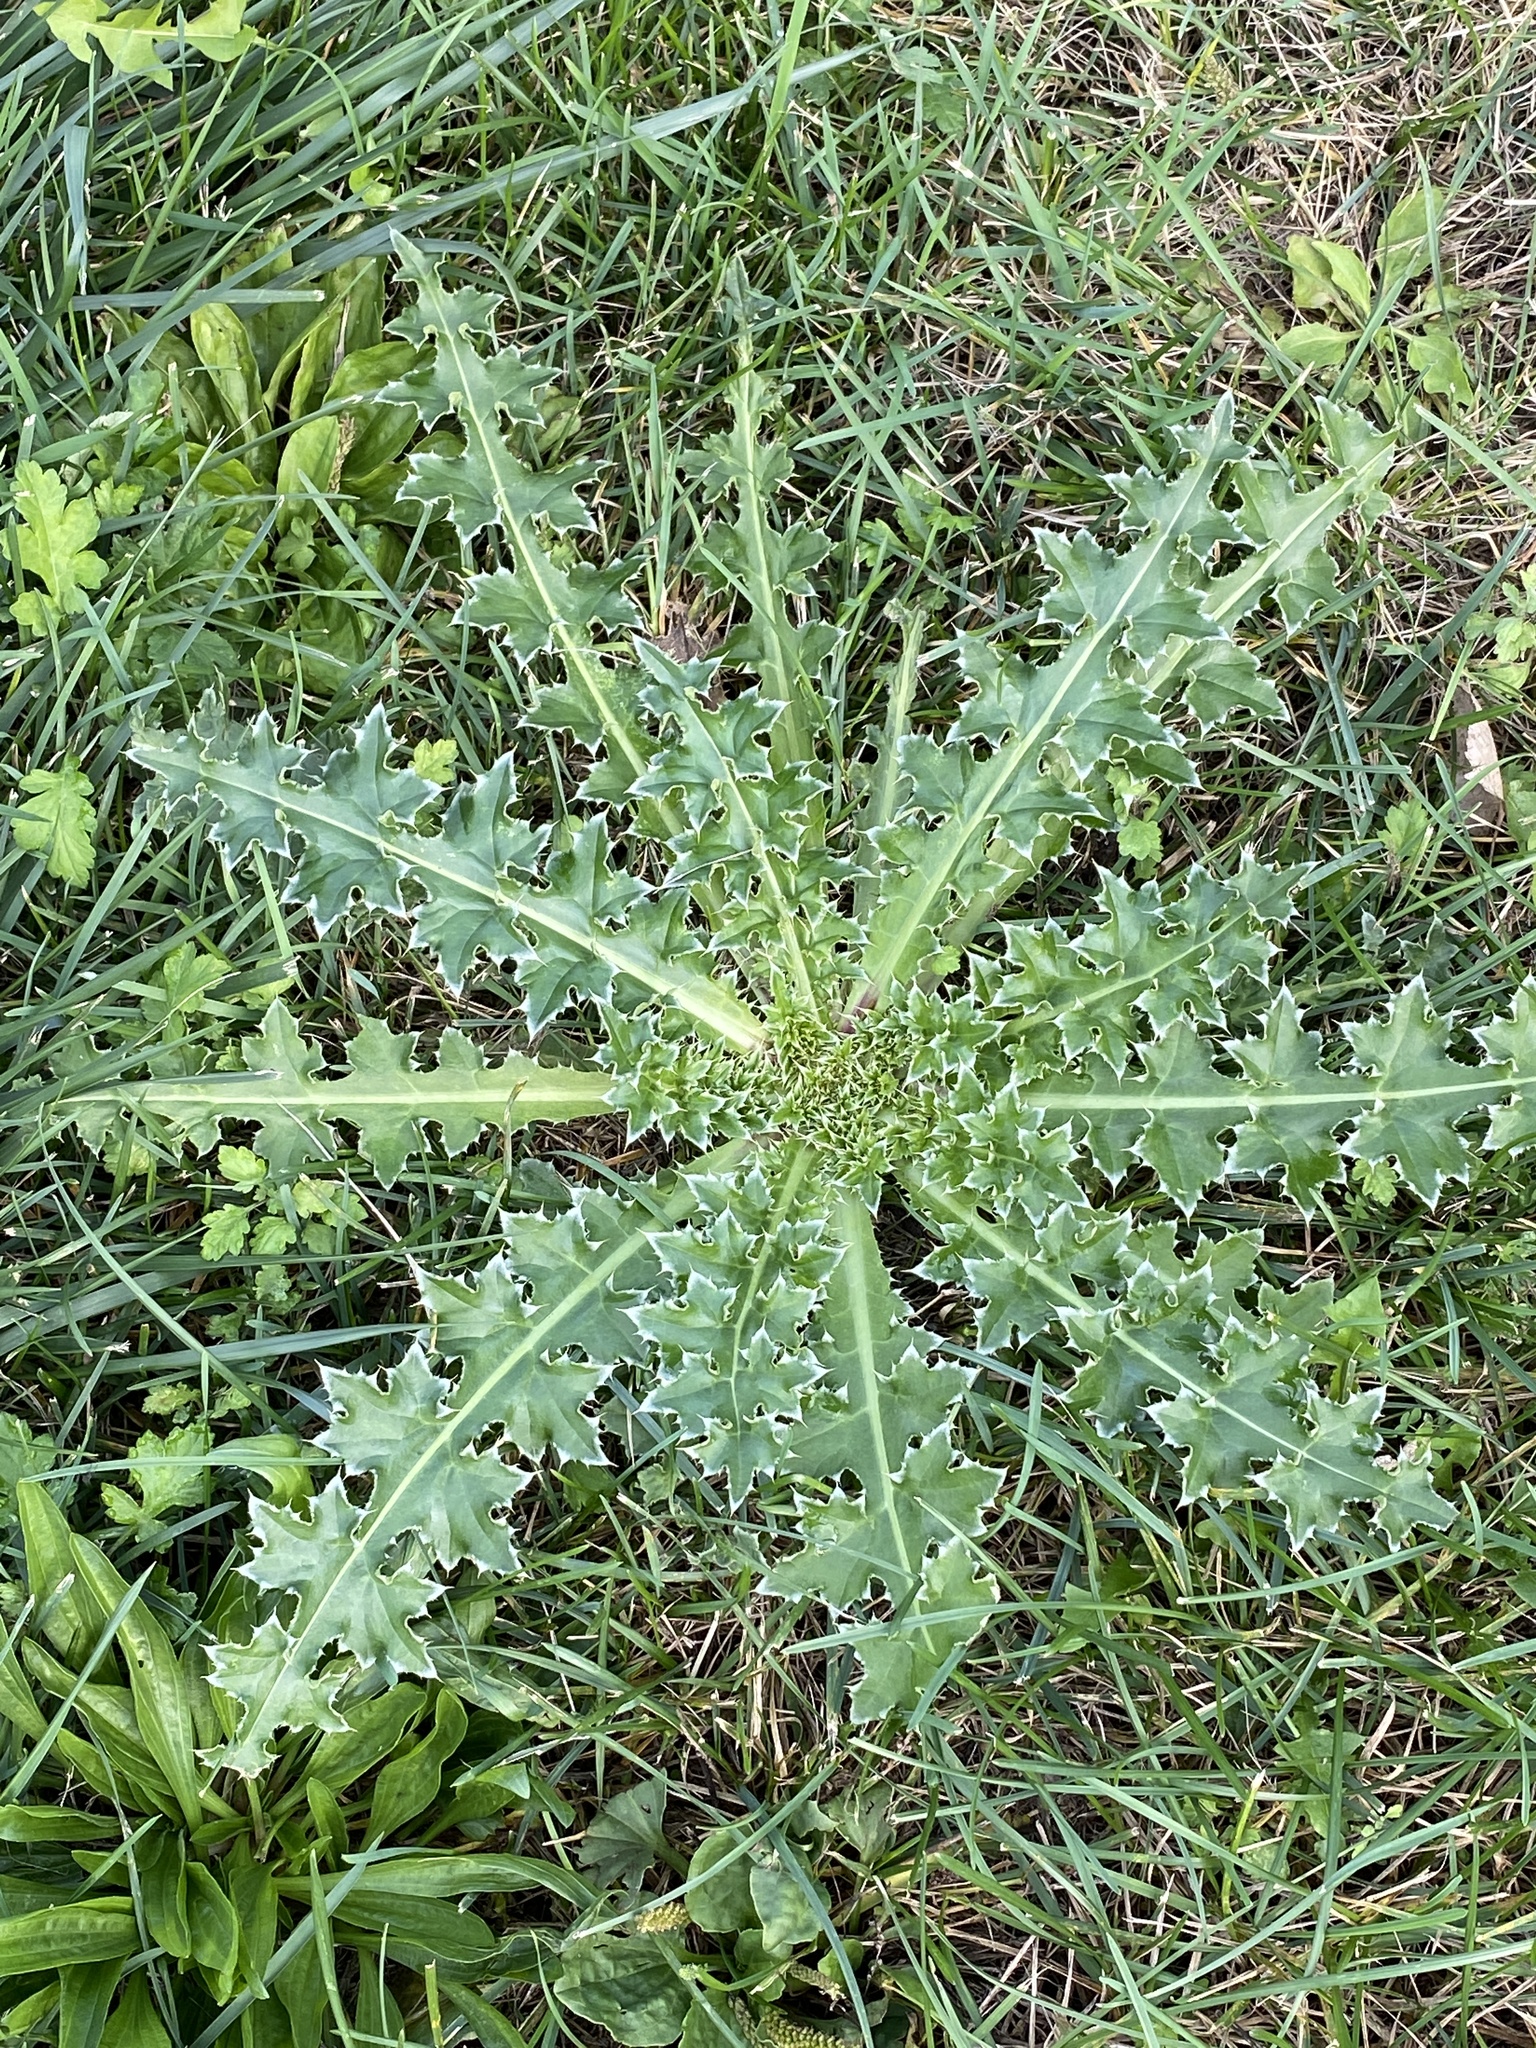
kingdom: Plantae
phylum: Tracheophyta
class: Magnoliopsida
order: Asterales
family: Asteraceae
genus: Carduus
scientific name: Carduus nutans
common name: Musk thistle
